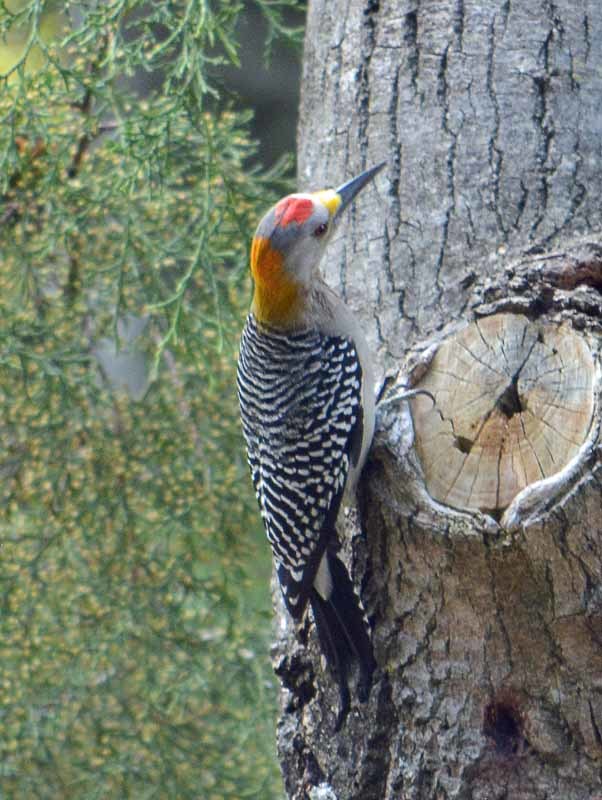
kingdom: Animalia
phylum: Chordata
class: Aves
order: Piciformes
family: Picidae
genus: Melanerpes
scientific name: Melanerpes aurifrons
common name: Golden-fronted woodpecker
